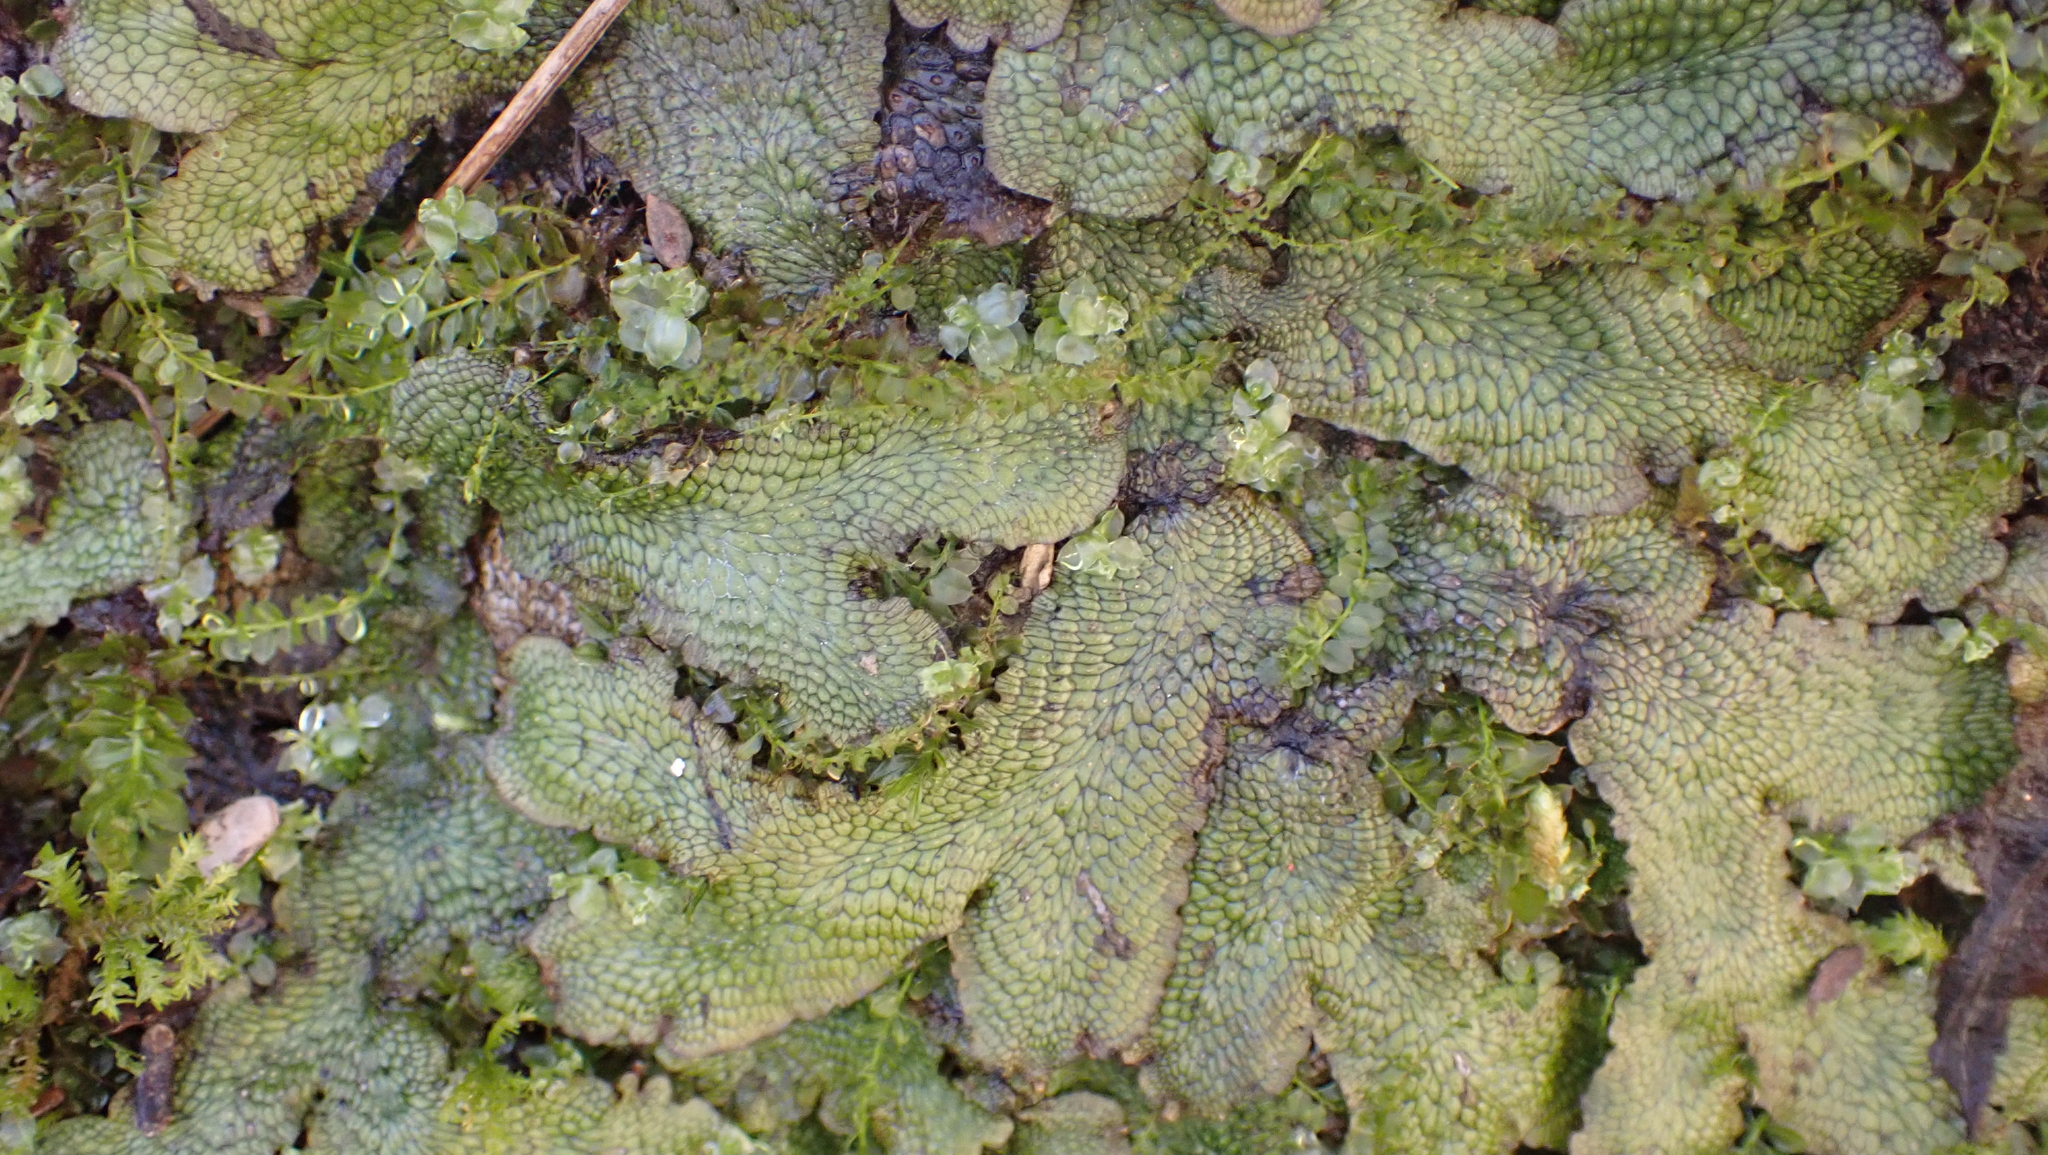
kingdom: Plantae
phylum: Marchantiophyta
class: Marchantiopsida
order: Marchantiales
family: Conocephalaceae
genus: Conocephalum
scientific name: Conocephalum salebrosum
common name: Cat-tongue liverwort
